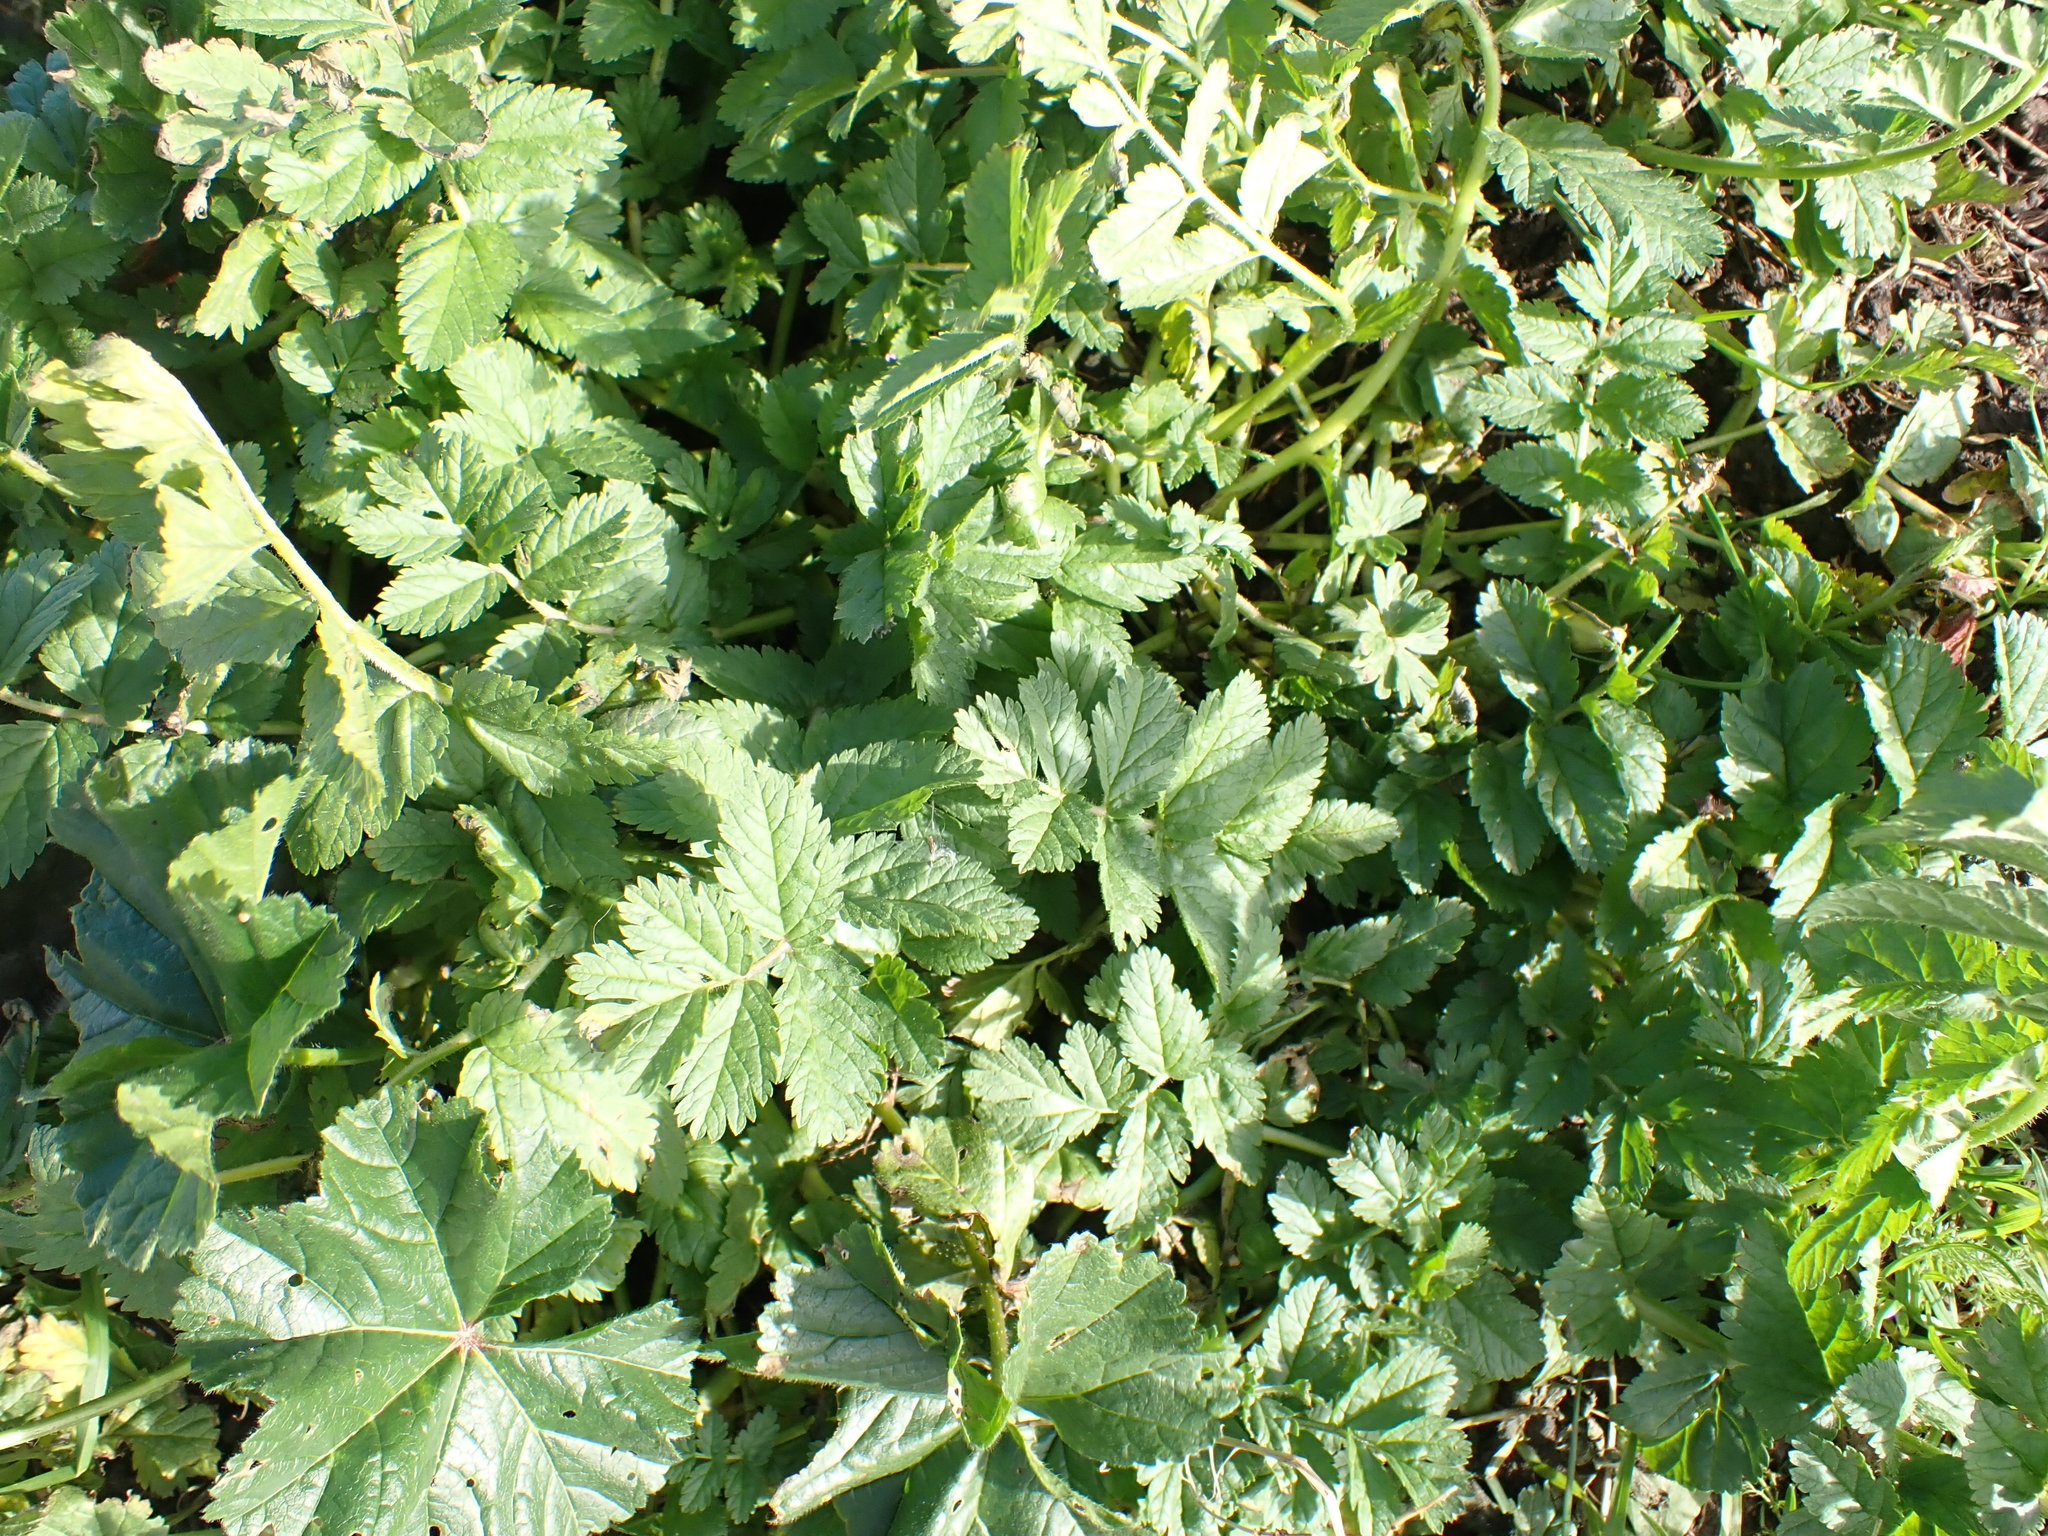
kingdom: Plantae
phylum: Tracheophyta
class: Magnoliopsida
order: Geraniales
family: Geraniaceae
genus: Erodium
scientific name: Erodium moschatum
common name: Musk stork's-bill
